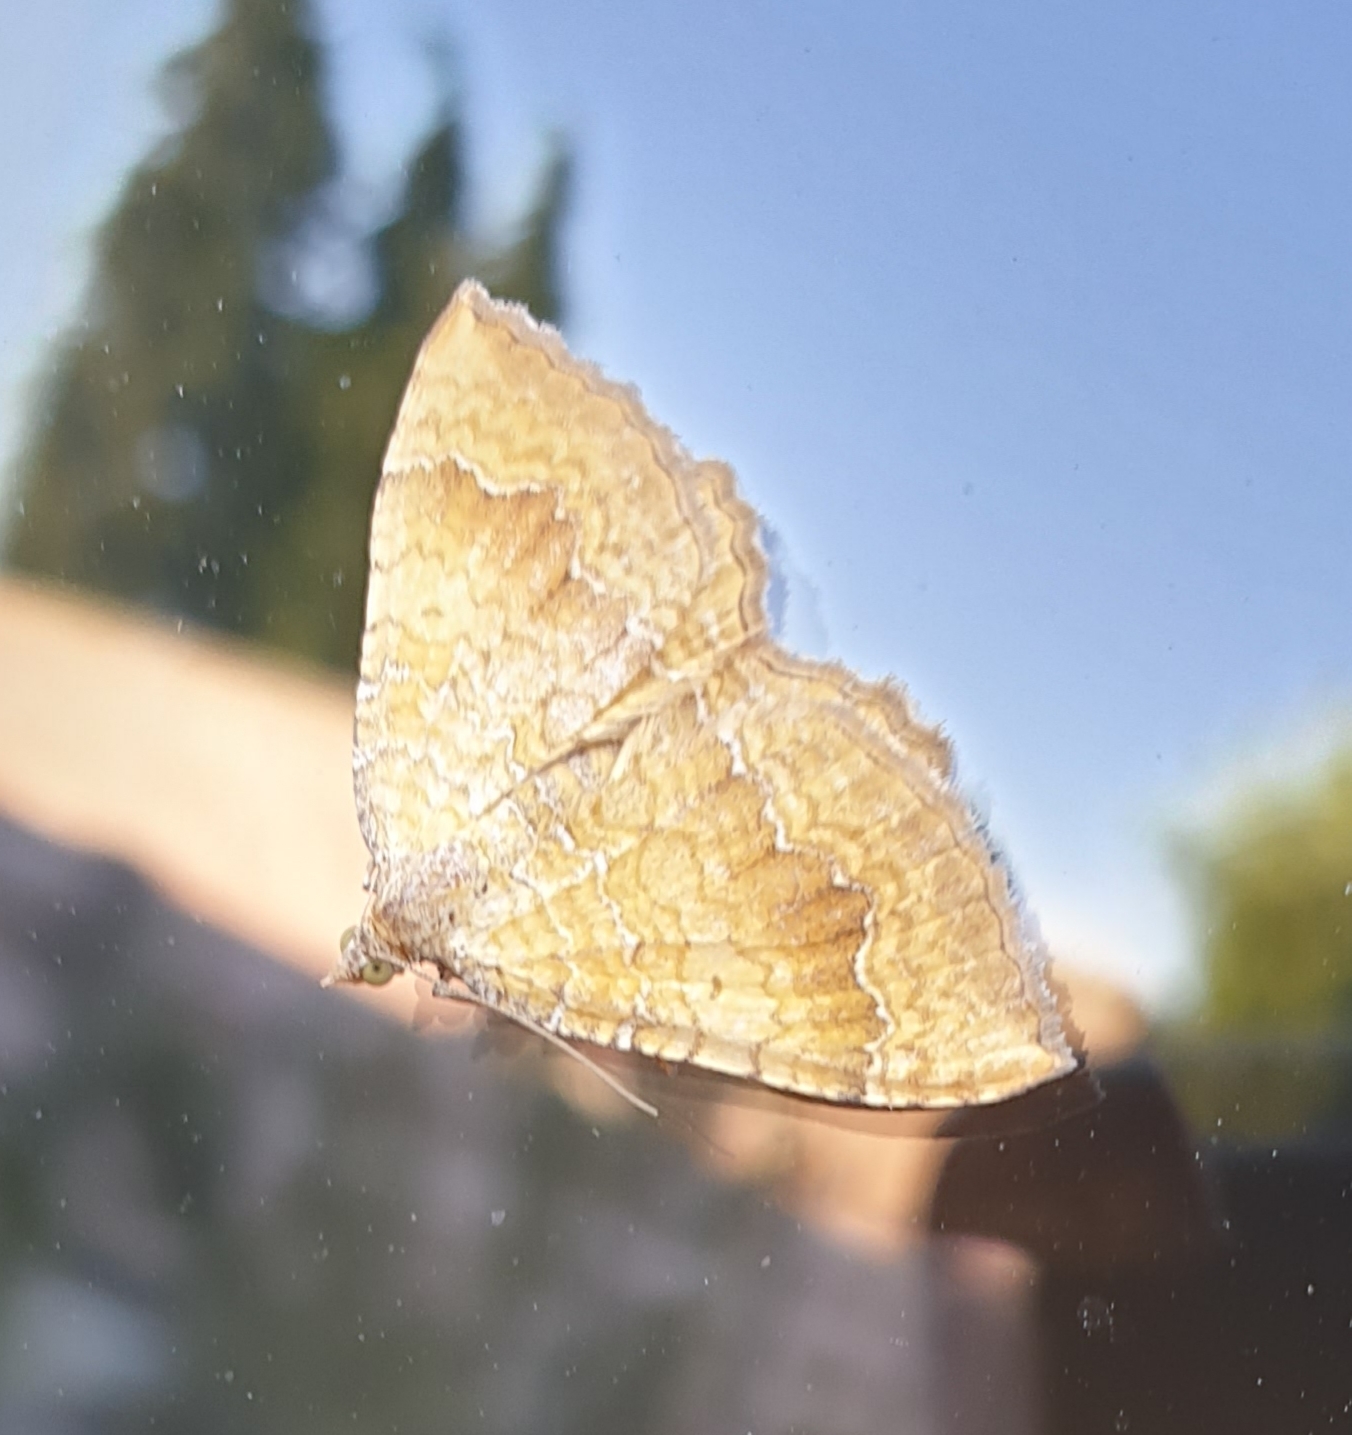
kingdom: Animalia
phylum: Arthropoda
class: Insecta
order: Lepidoptera
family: Geometridae
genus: Camptogramma
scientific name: Camptogramma bilineata
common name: Yellow shell
